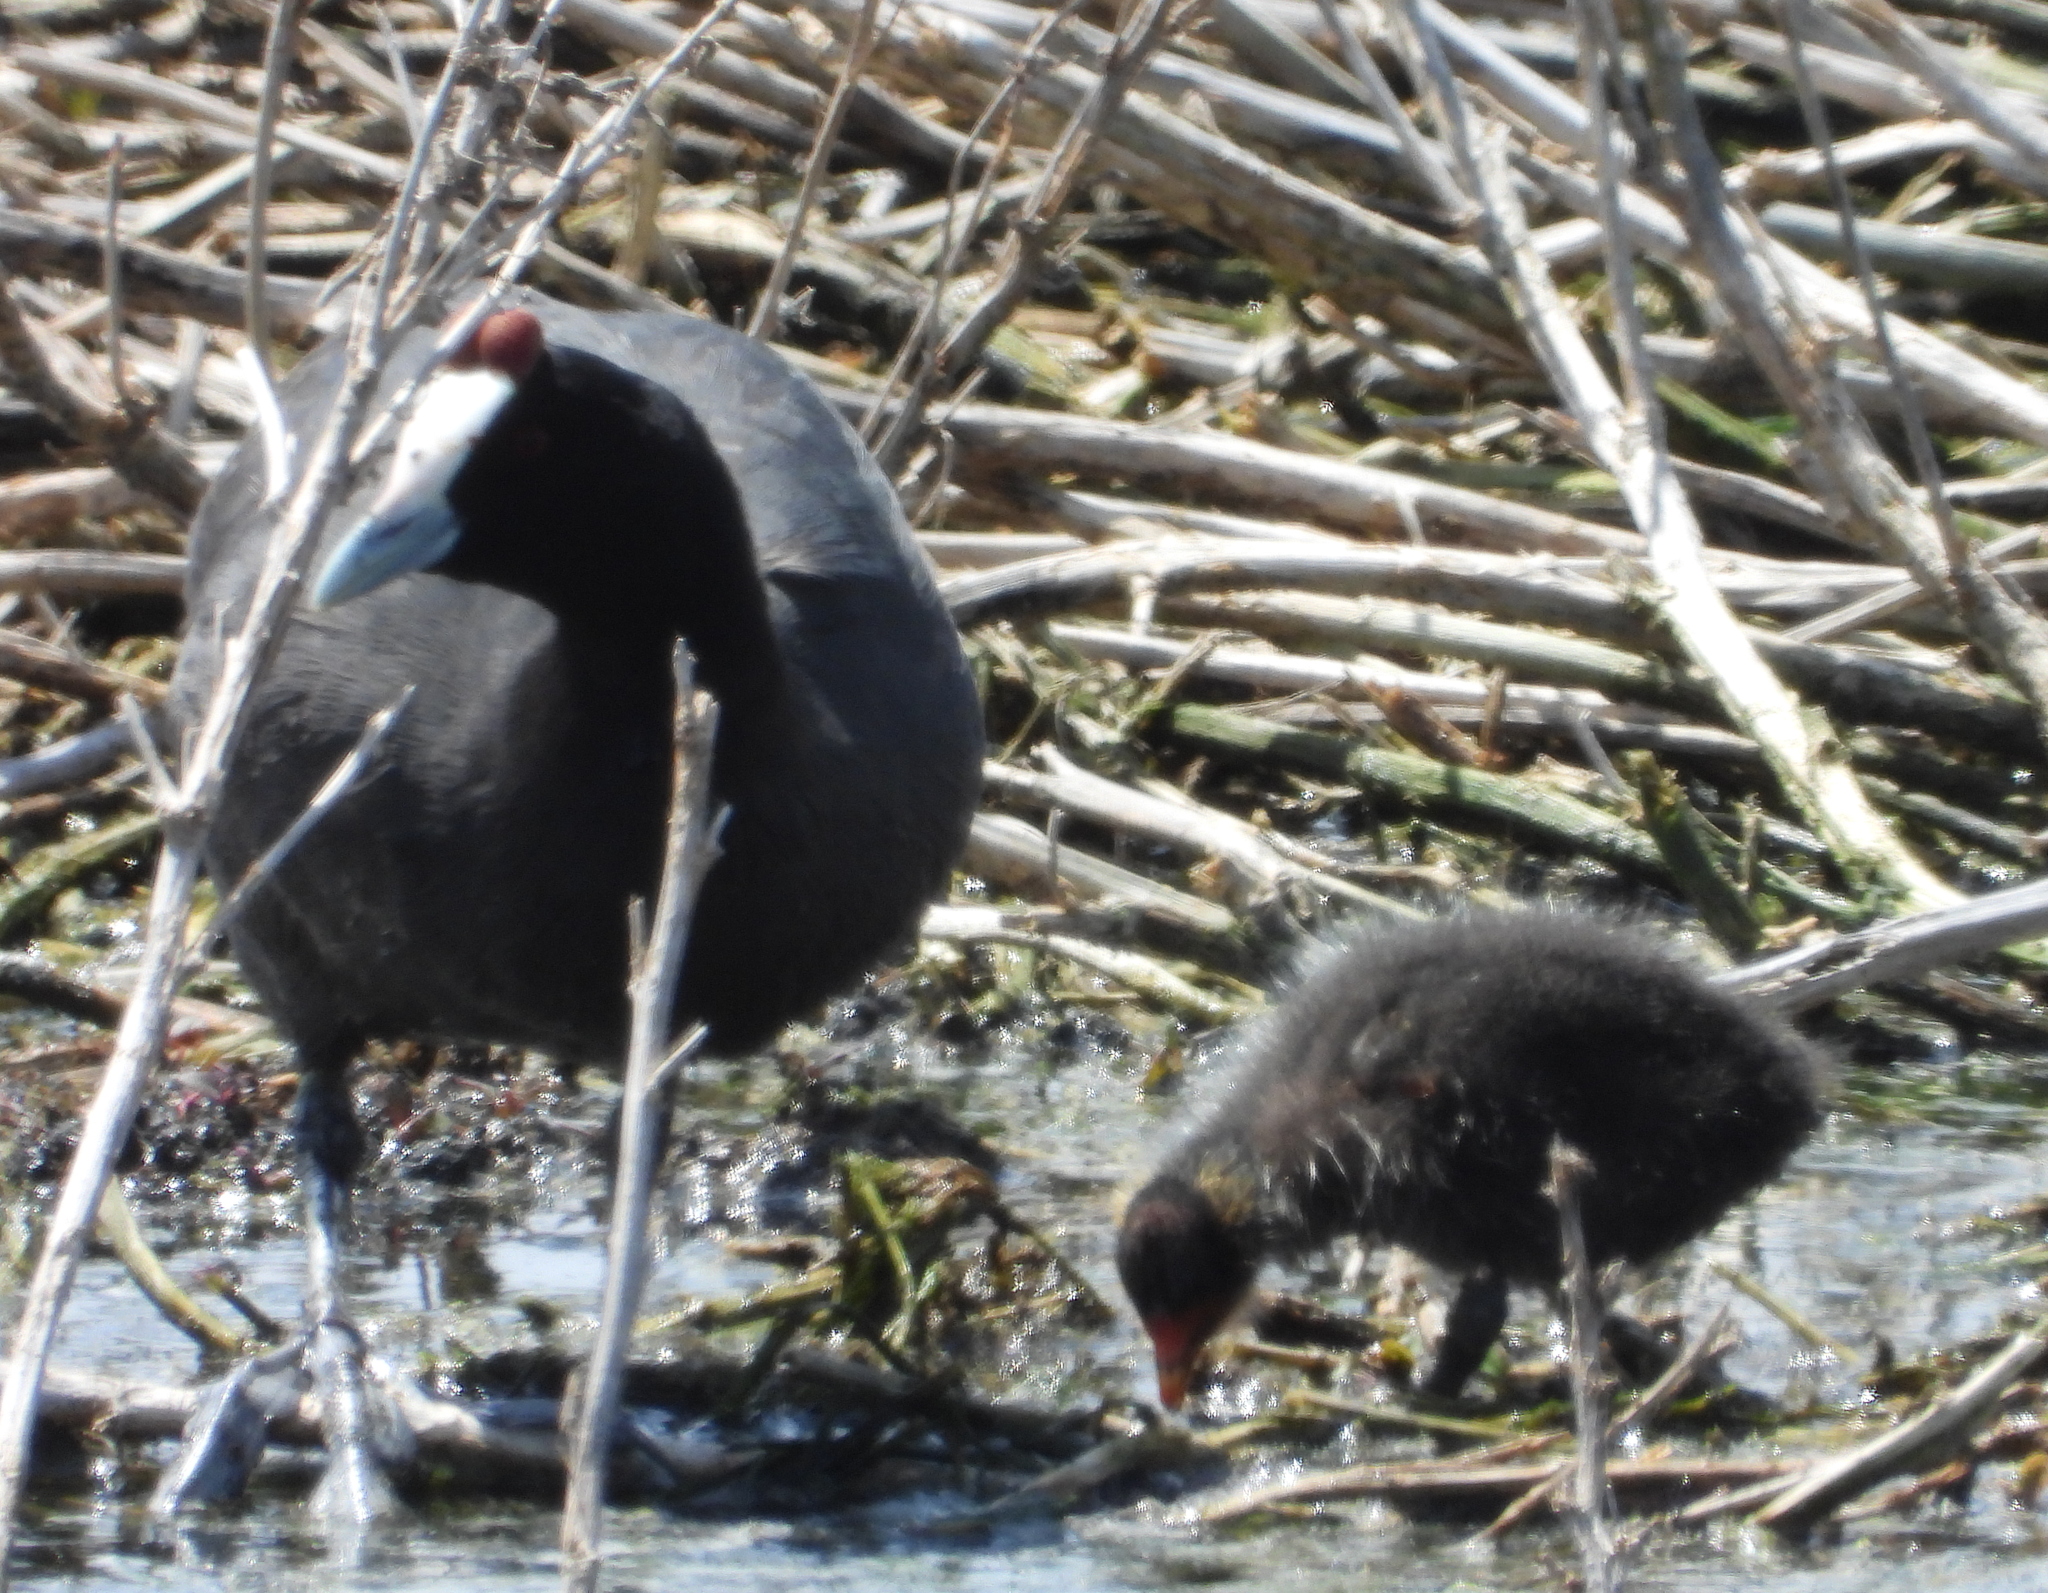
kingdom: Animalia
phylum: Chordata
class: Aves
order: Gruiformes
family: Rallidae
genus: Fulica
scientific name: Fulica cristata
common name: Red-knobbed coot
